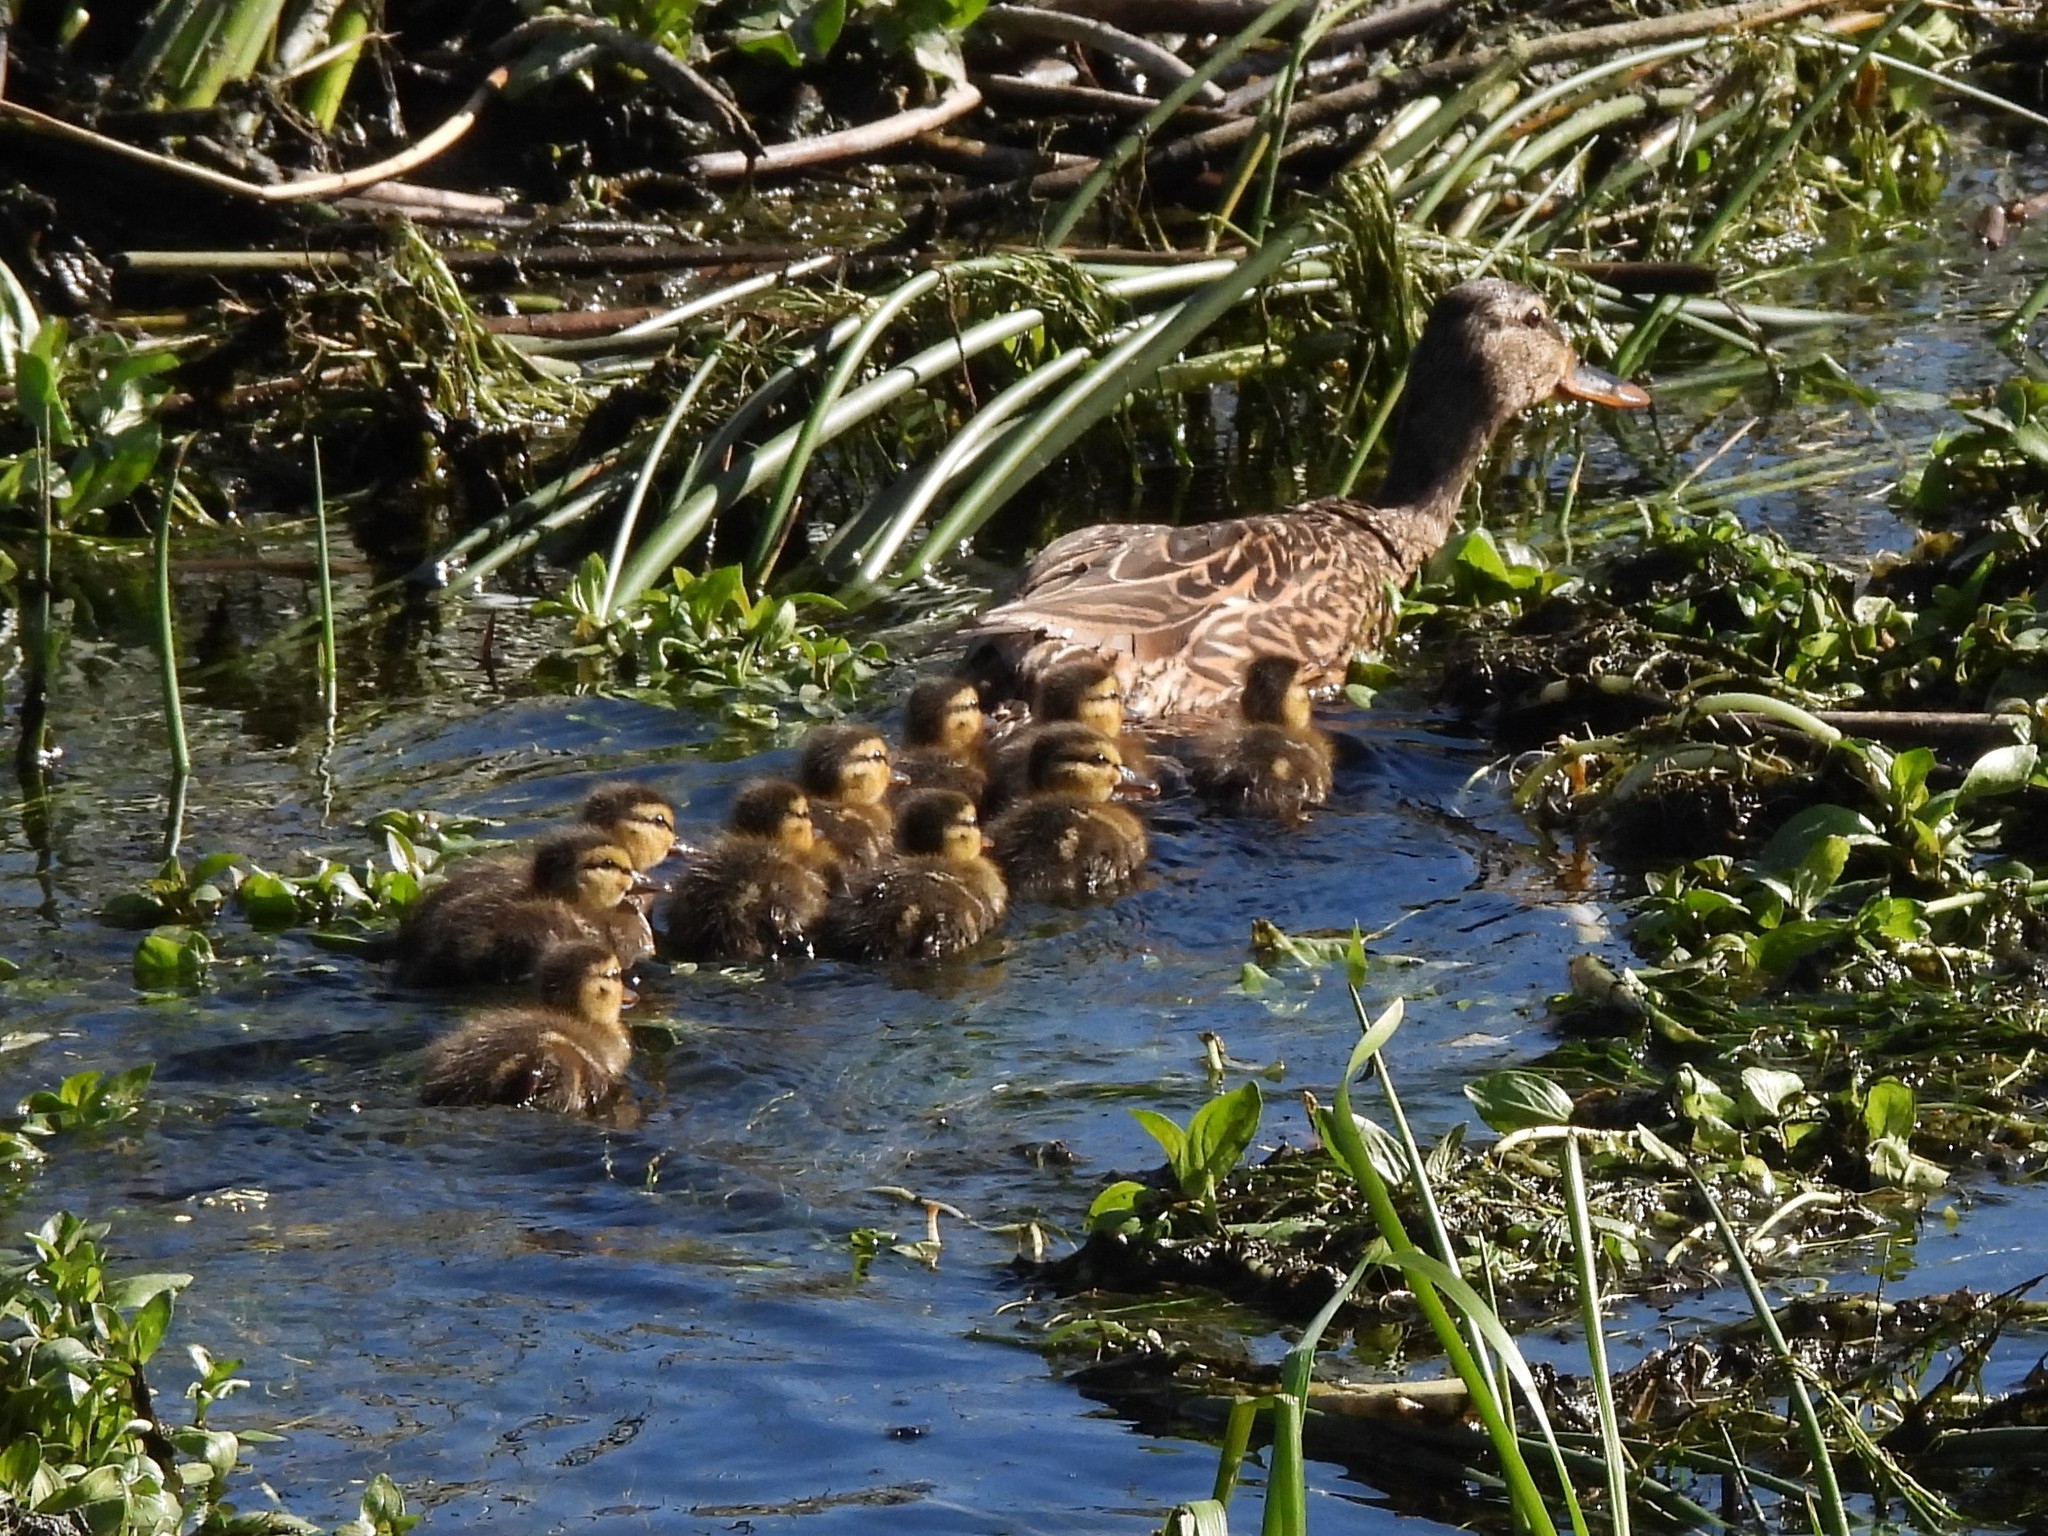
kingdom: Animalia
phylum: Chordata
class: Aves
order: Anseriformes
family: Anatidae
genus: Anas
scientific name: Anas platyrhynchos
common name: Mallard
